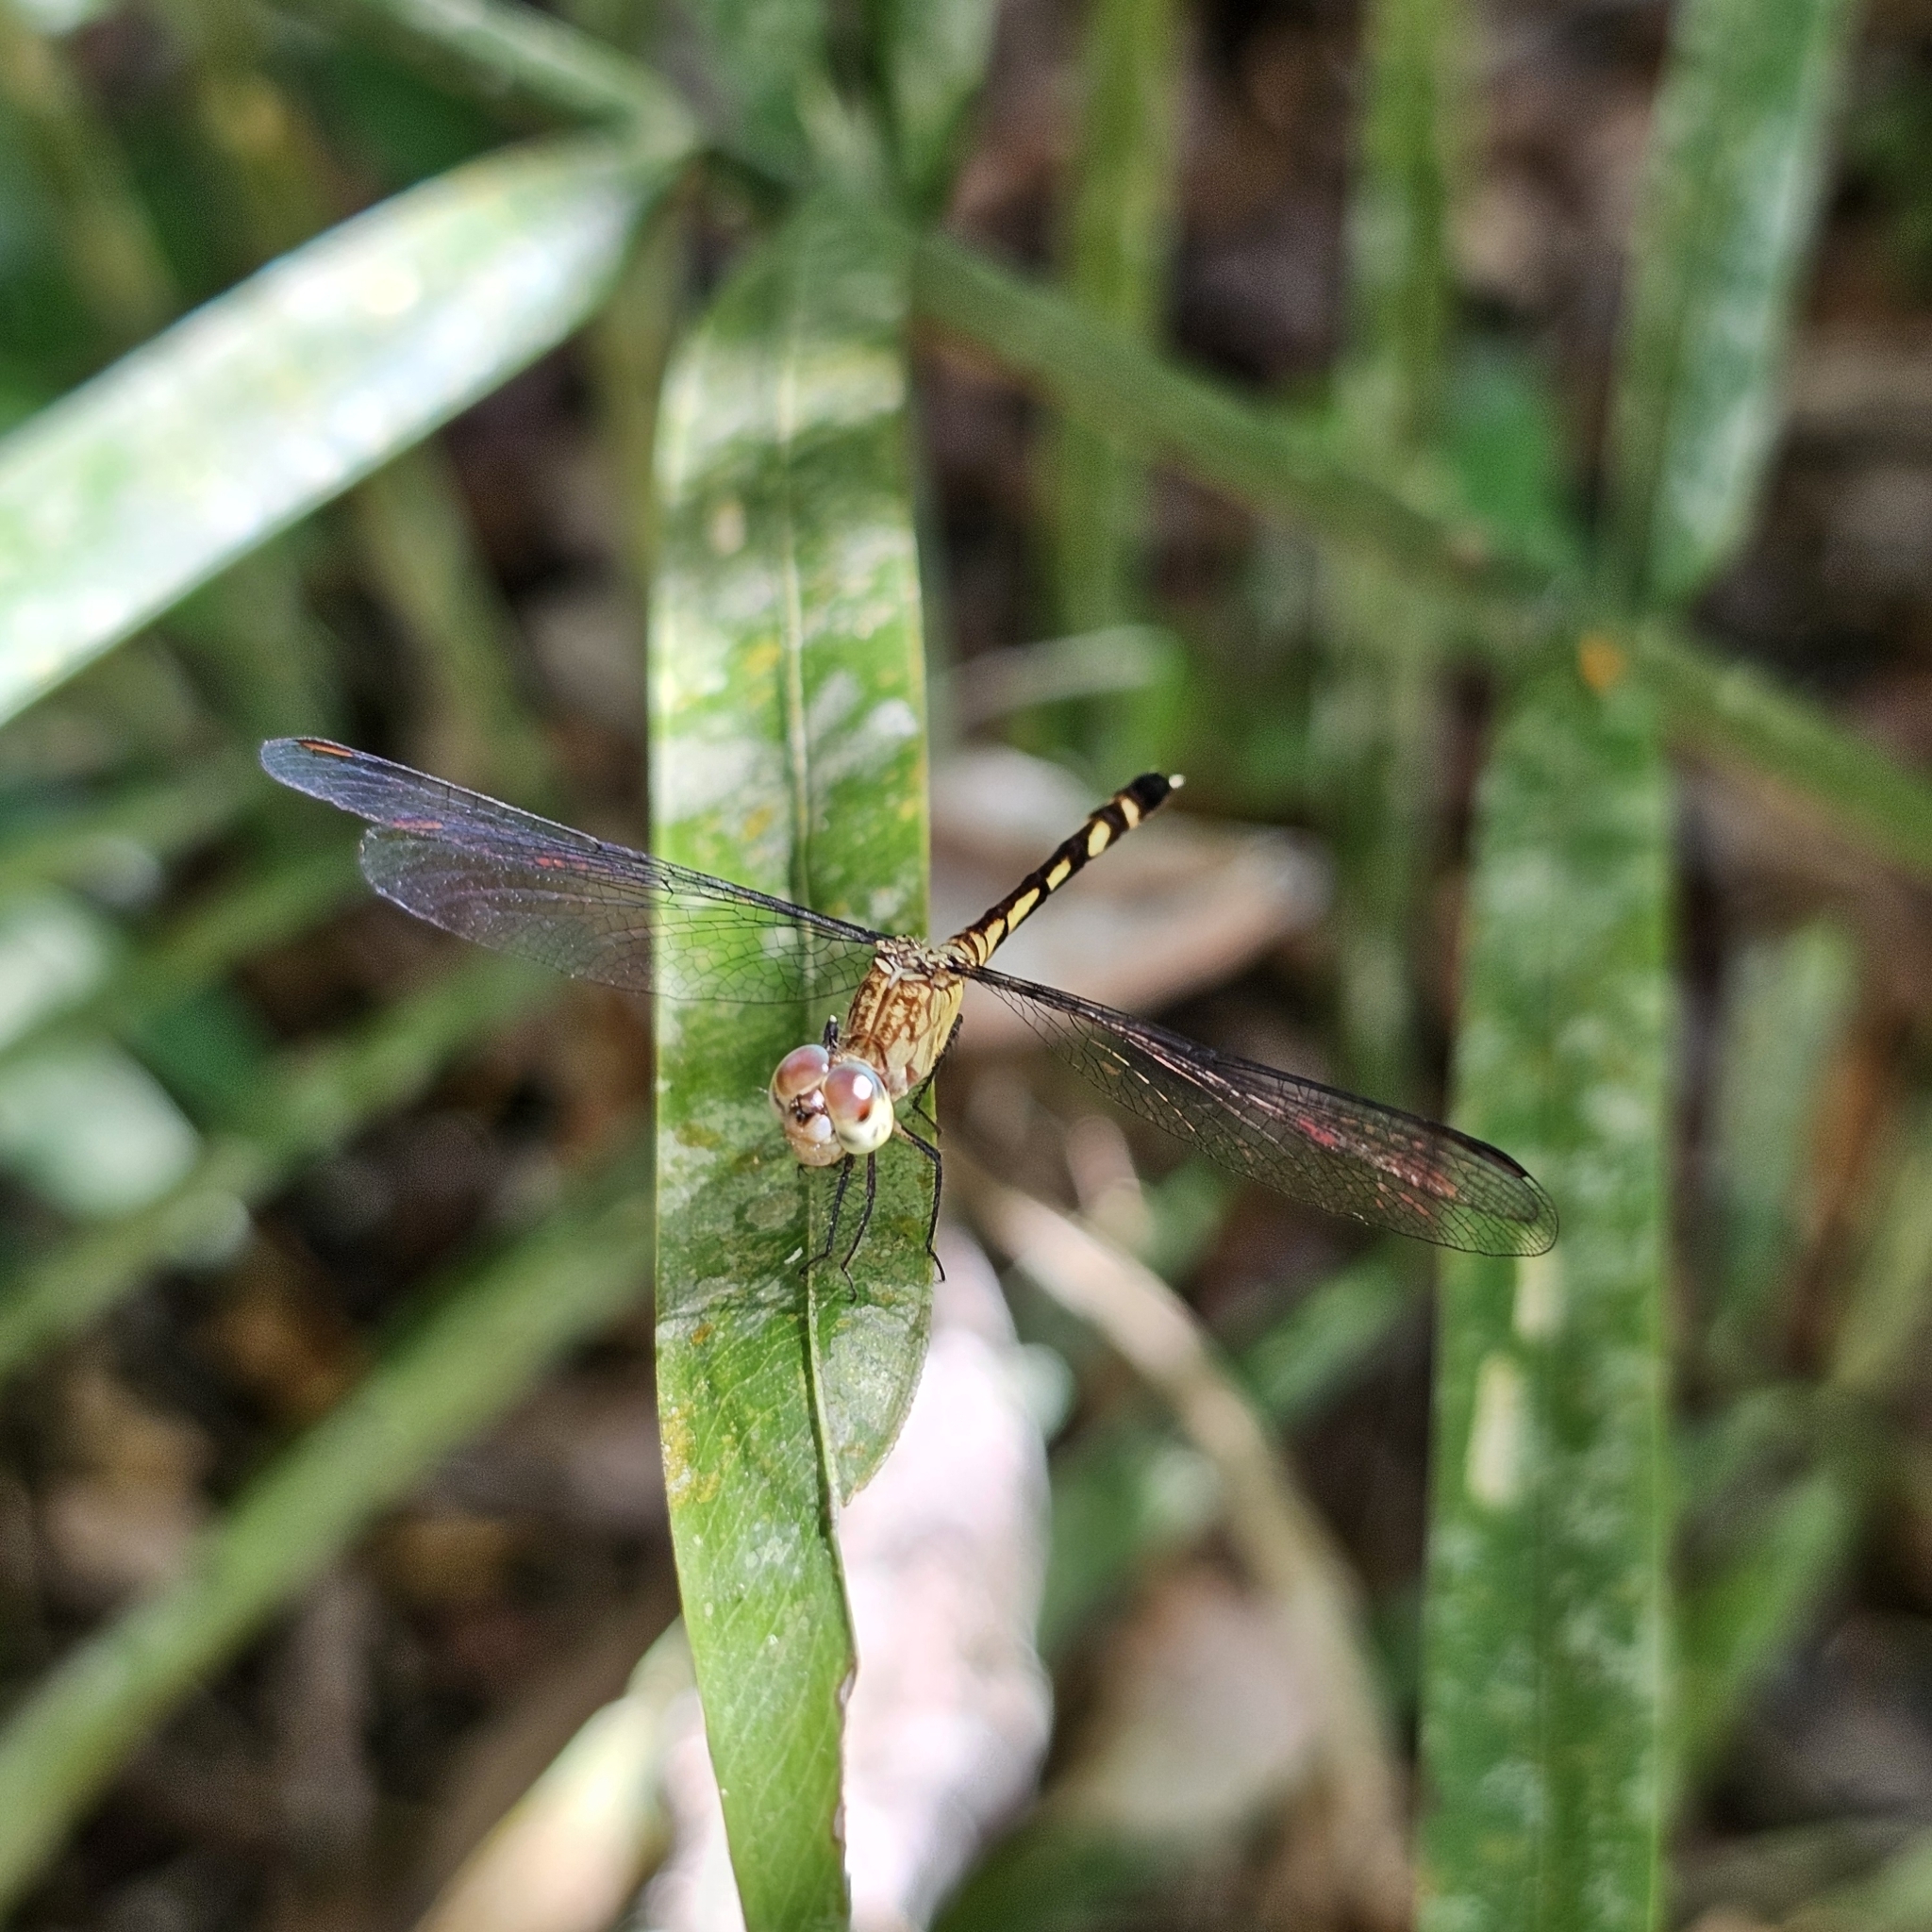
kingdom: Animalia
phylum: Arthropoda
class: Insecta
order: Odonata
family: Libellulidae
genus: Anatya
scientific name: Anatya guttata
